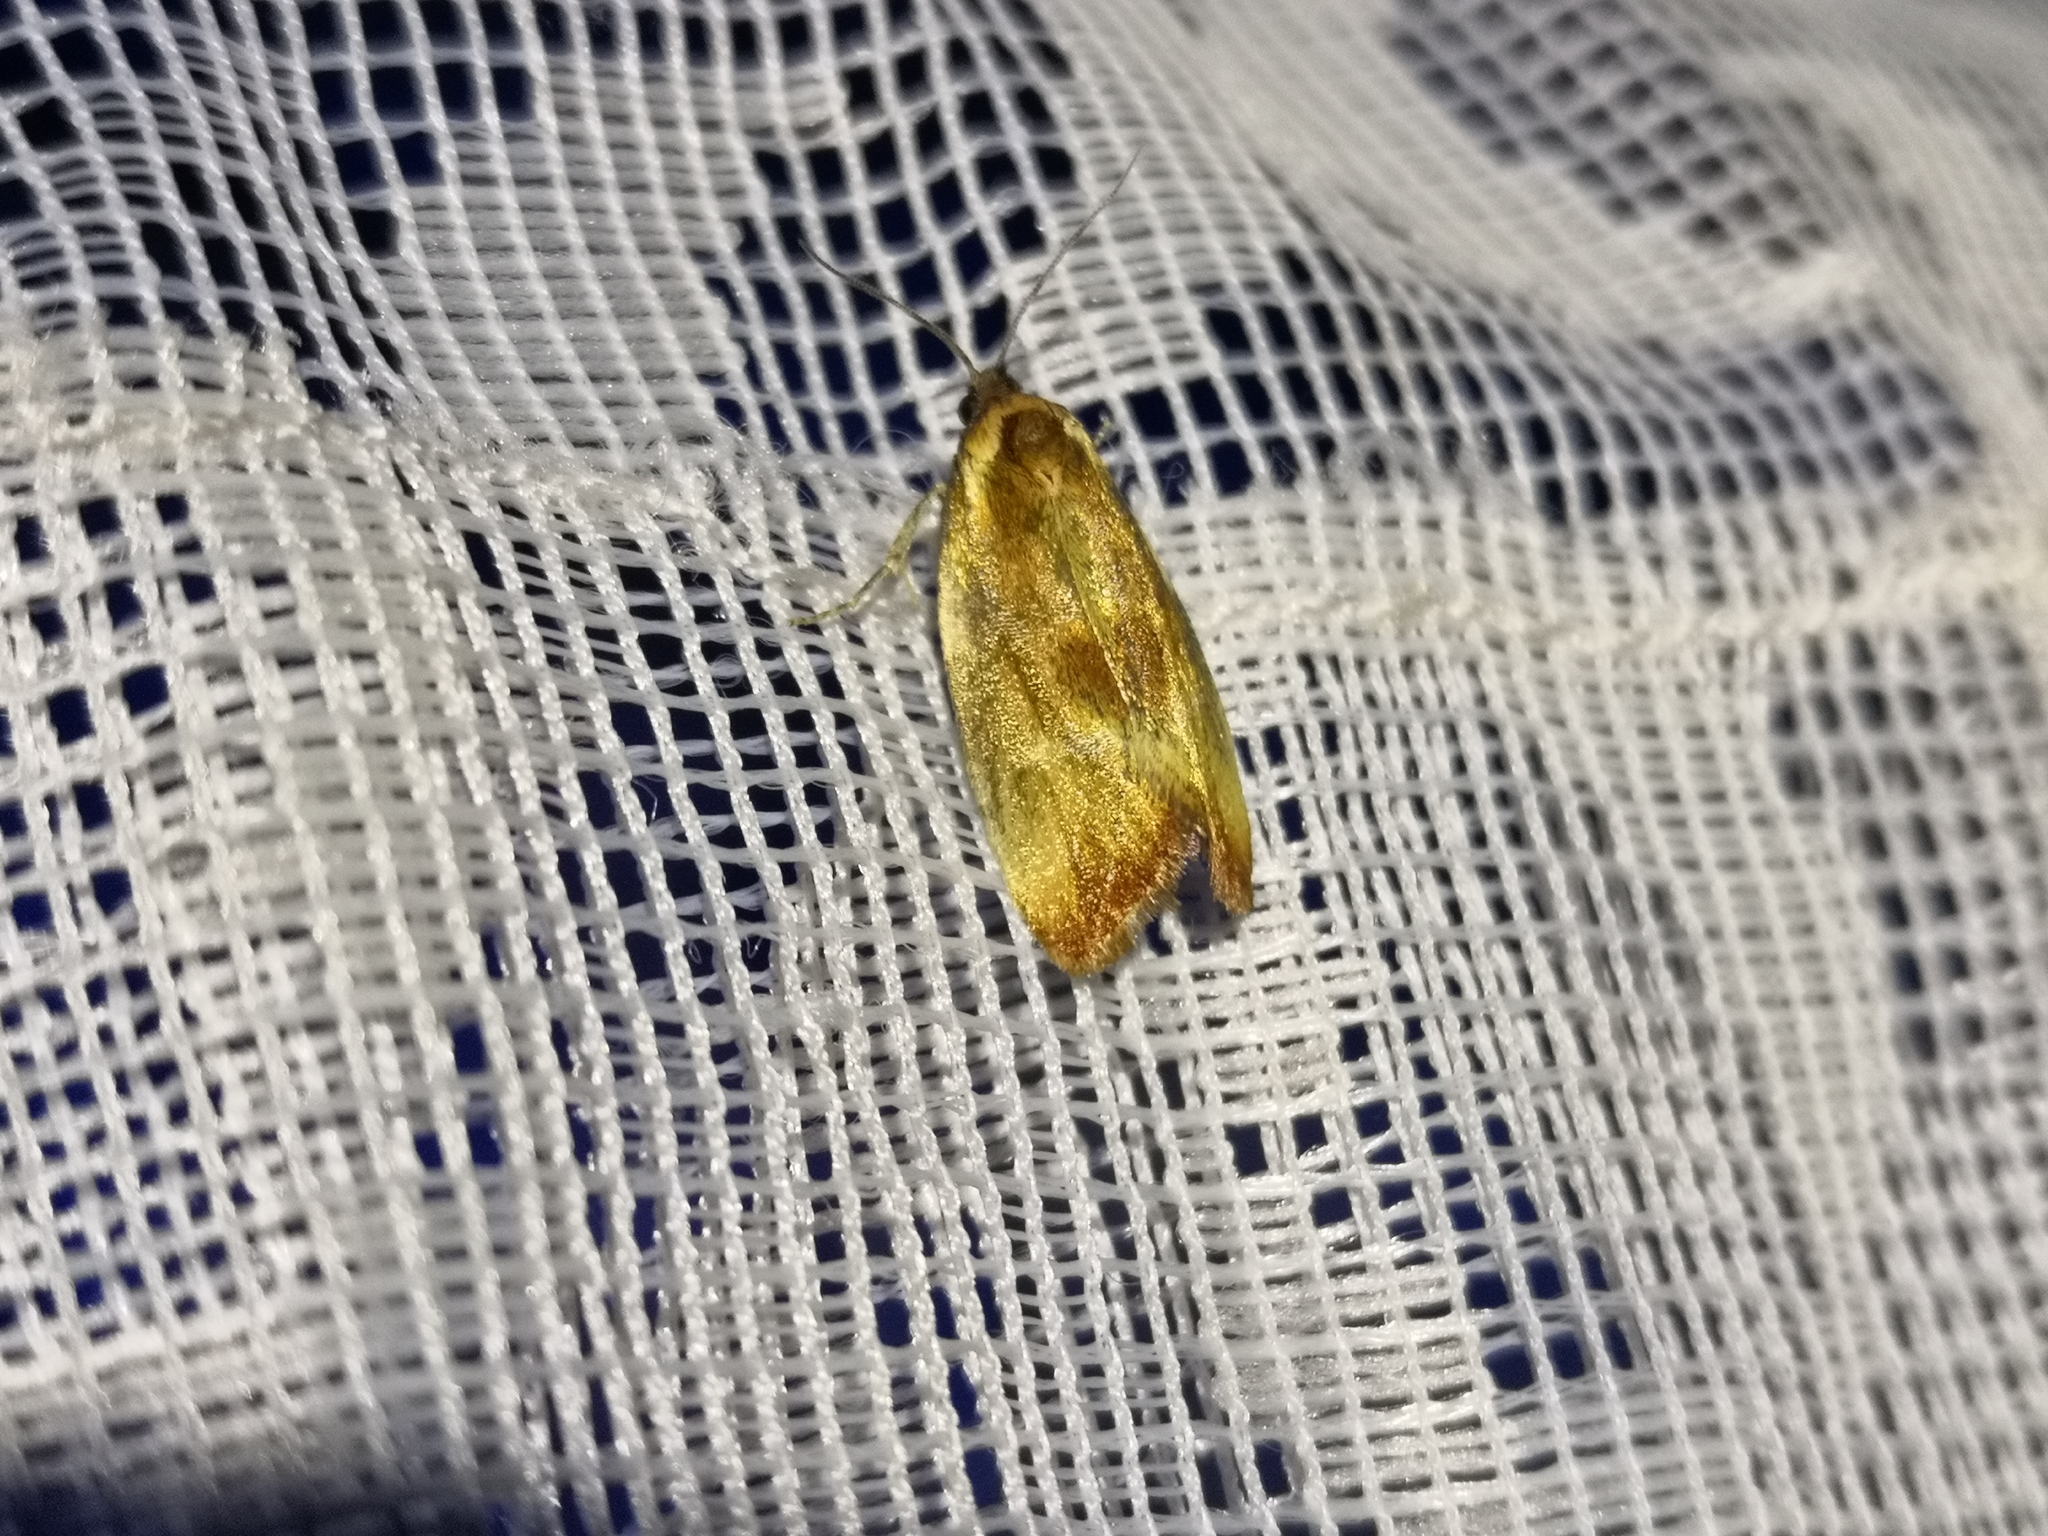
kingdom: Animalia
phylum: Arthropoda
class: Insecta
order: Lepidoptera
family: Tortricidae
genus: Eulia
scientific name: Eulia ministrana
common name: Brassy twist
